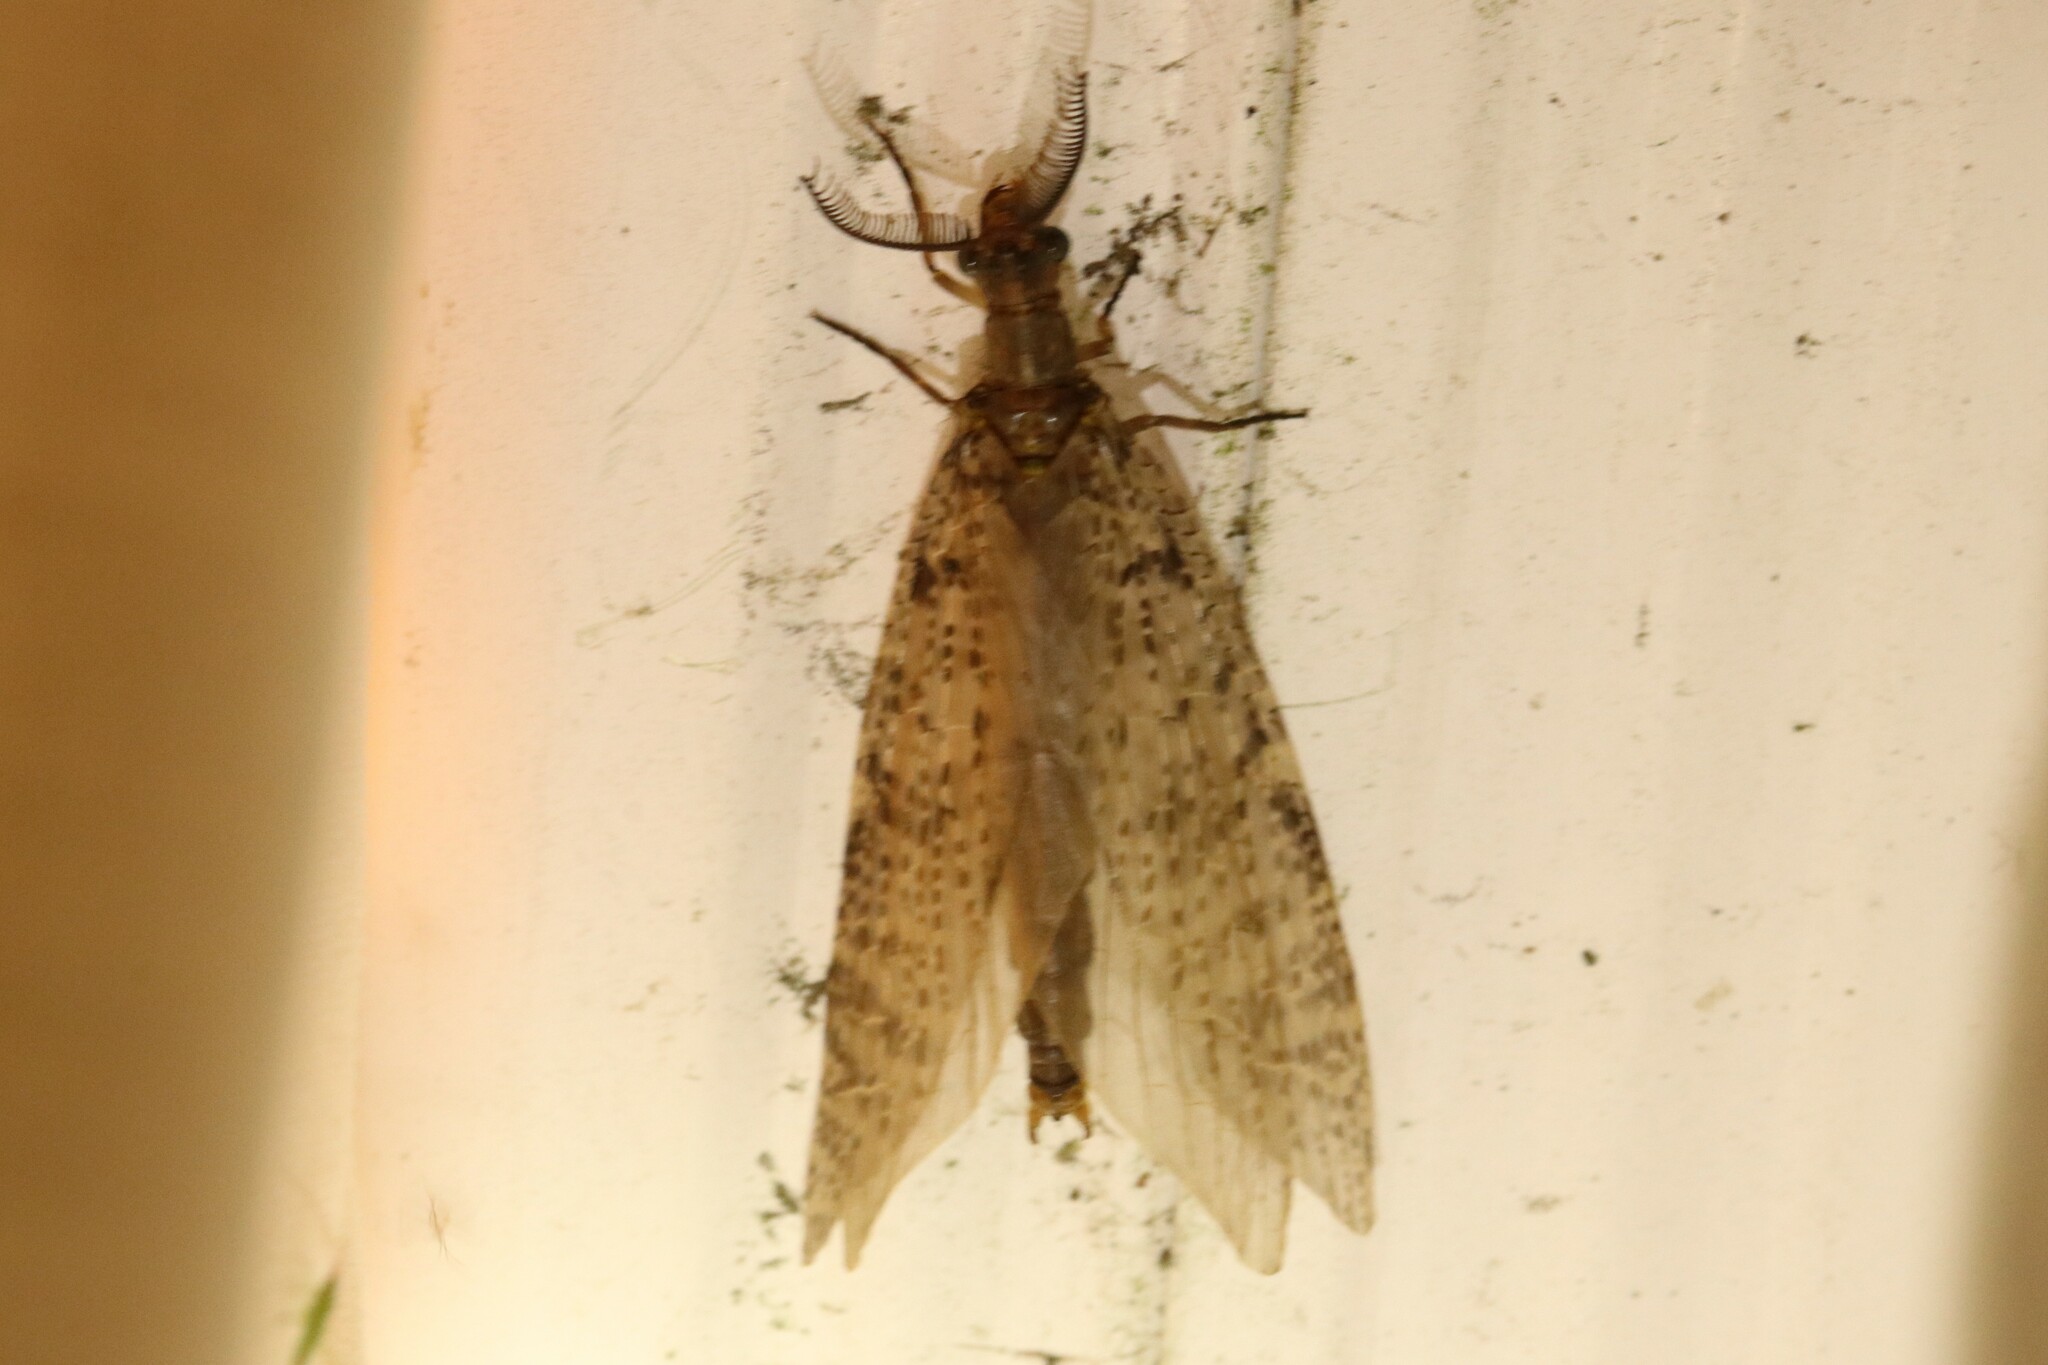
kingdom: Animalia
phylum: Arthropoda
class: Insecta
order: Megaloptera
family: Corydalidae
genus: Chauliodes
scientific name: Chauliodes pectinicornis
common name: Summer fishfly
